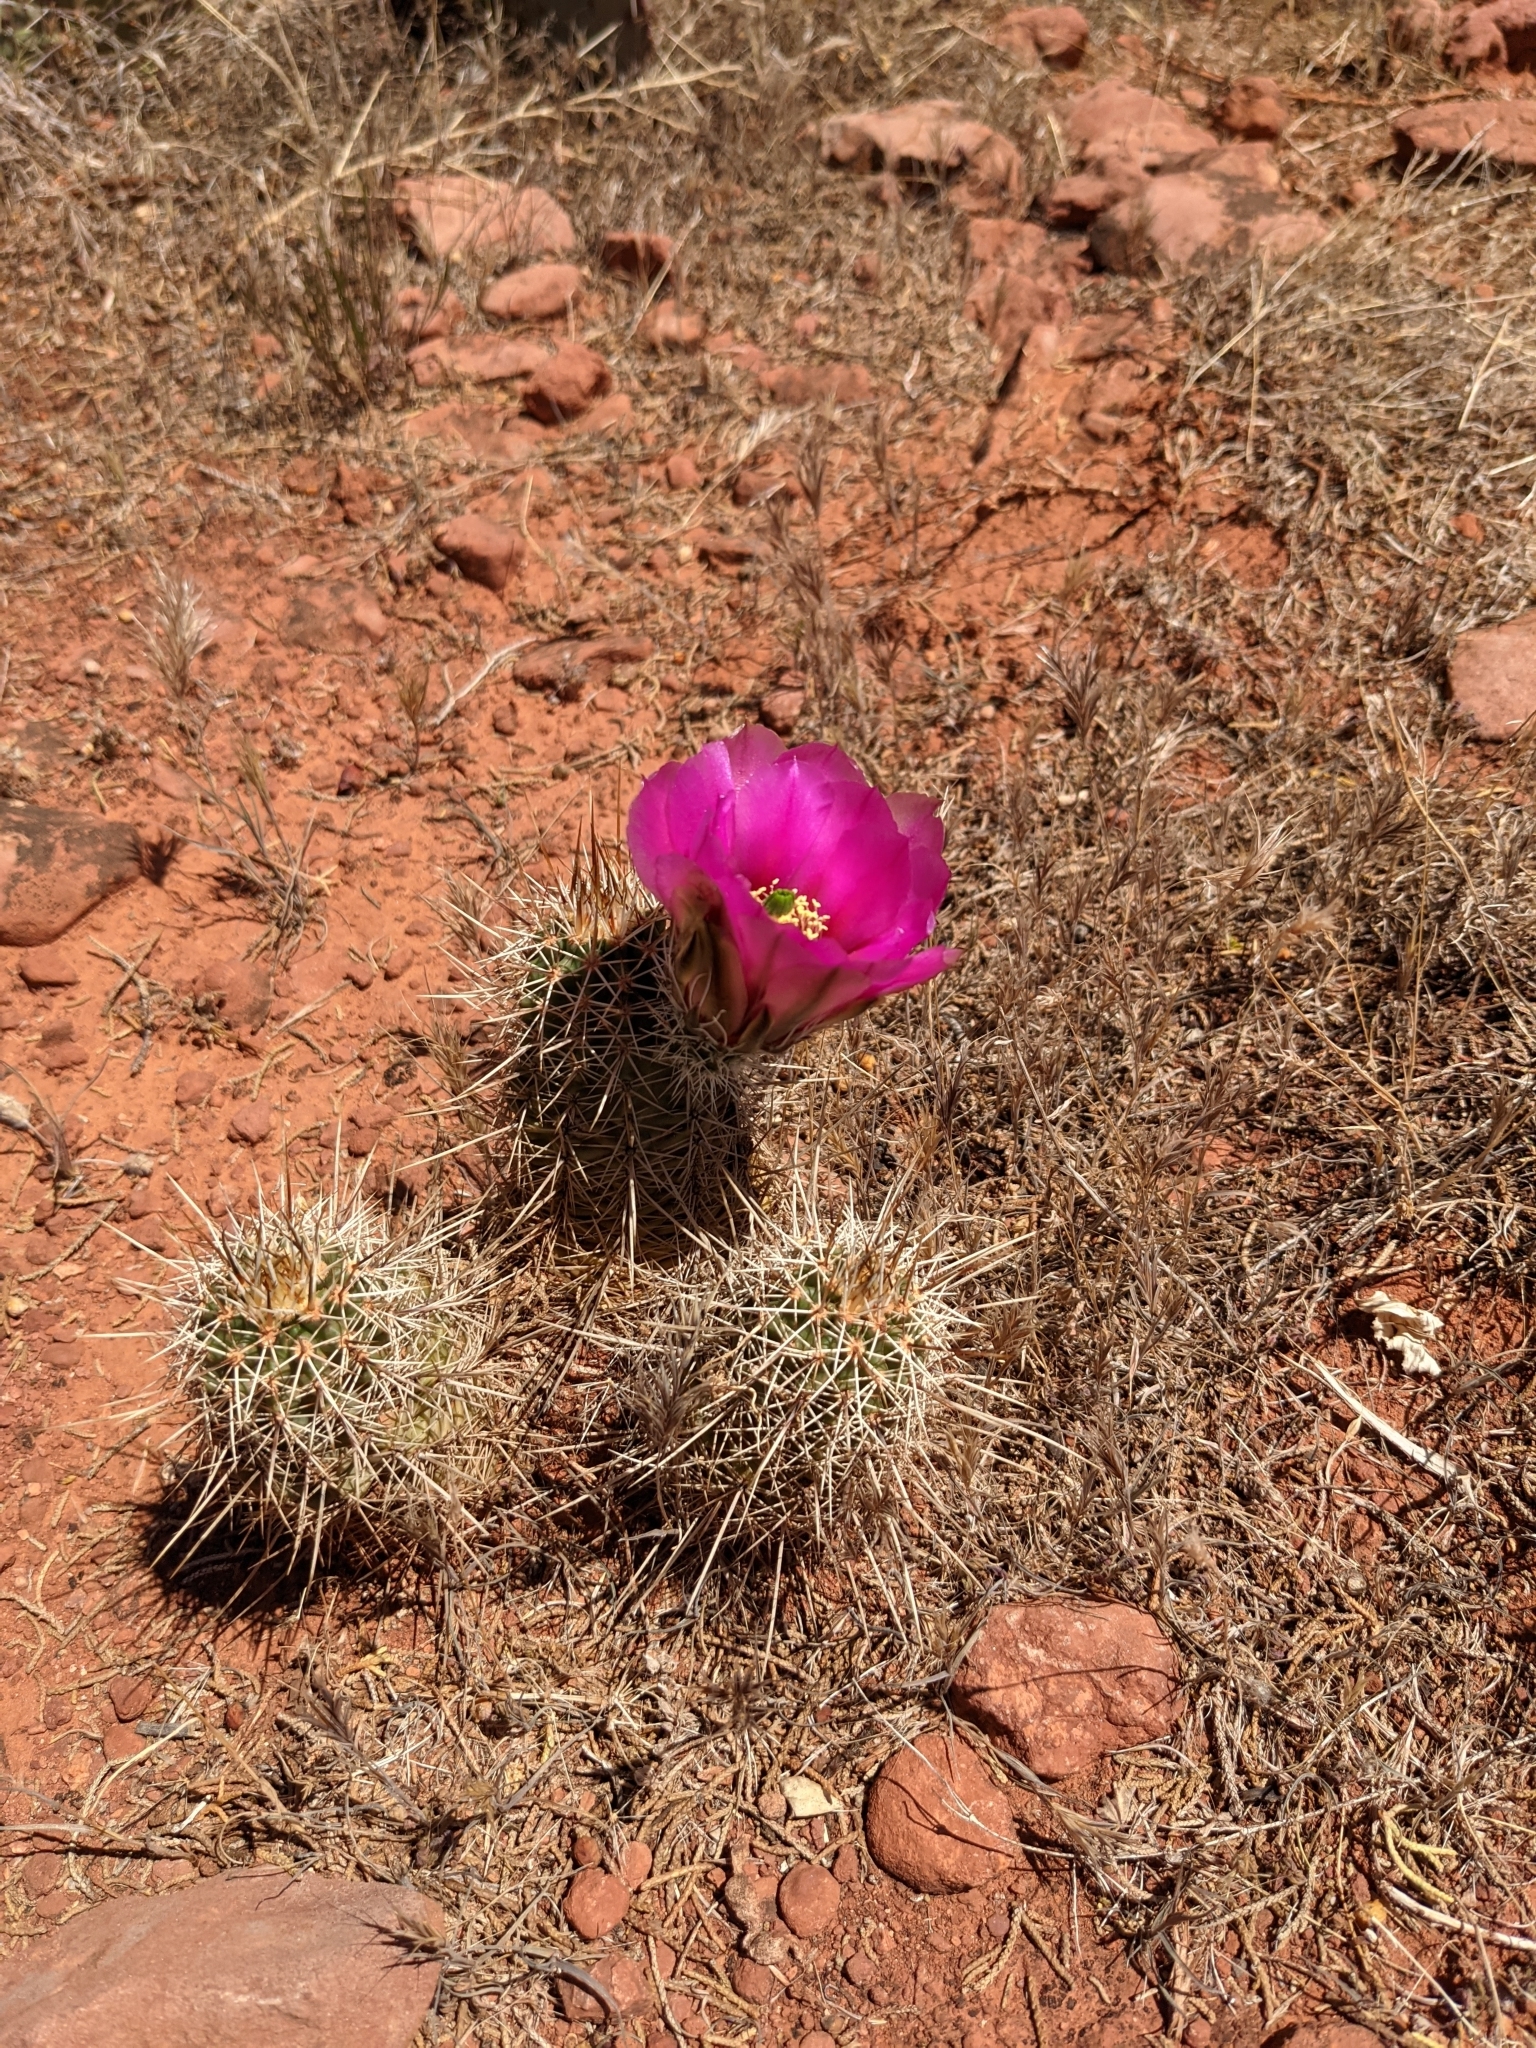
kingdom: Plantae
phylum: Tracheophyta
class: Magnoliopsida
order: Caryophyllales
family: Cactaceae
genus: Echinocereus
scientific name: Echinocereus fasciculatus
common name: Bundle hedgehog
